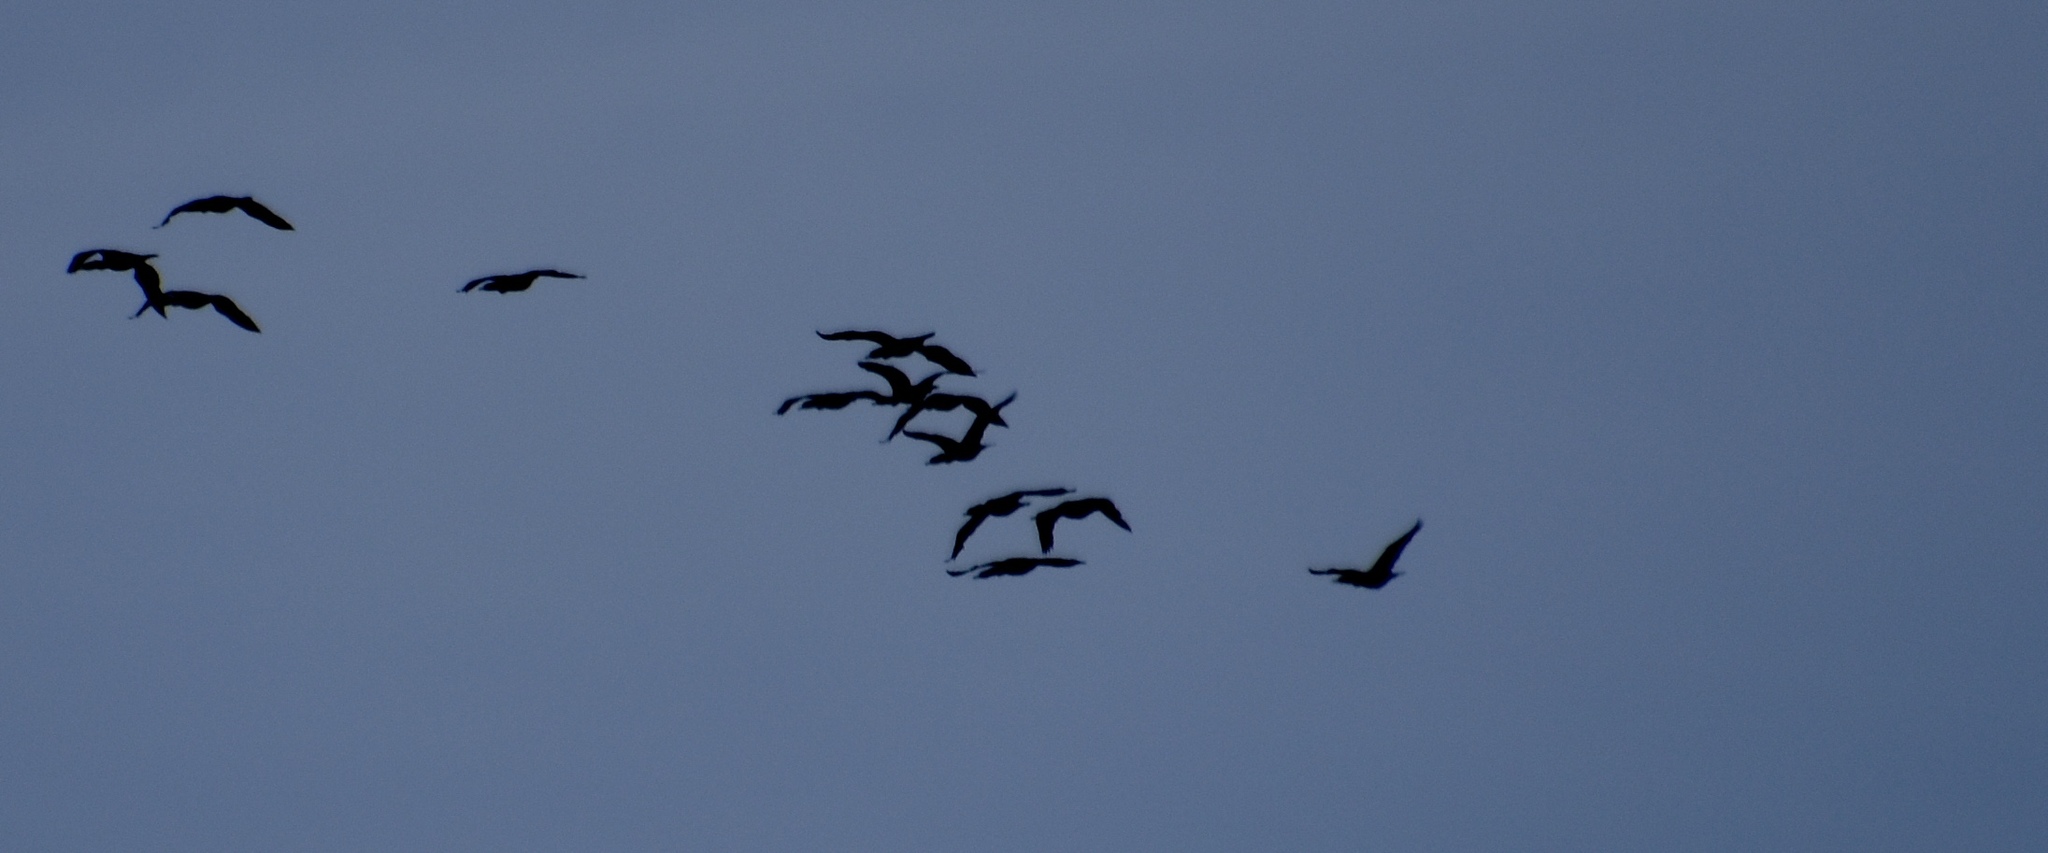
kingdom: Animalia
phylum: Chordata
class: Aves
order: Suliformes
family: Phalacrocoracidae
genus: Phalacrocorax
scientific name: Phalacrocorax auritus
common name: Double-crested cormorant
